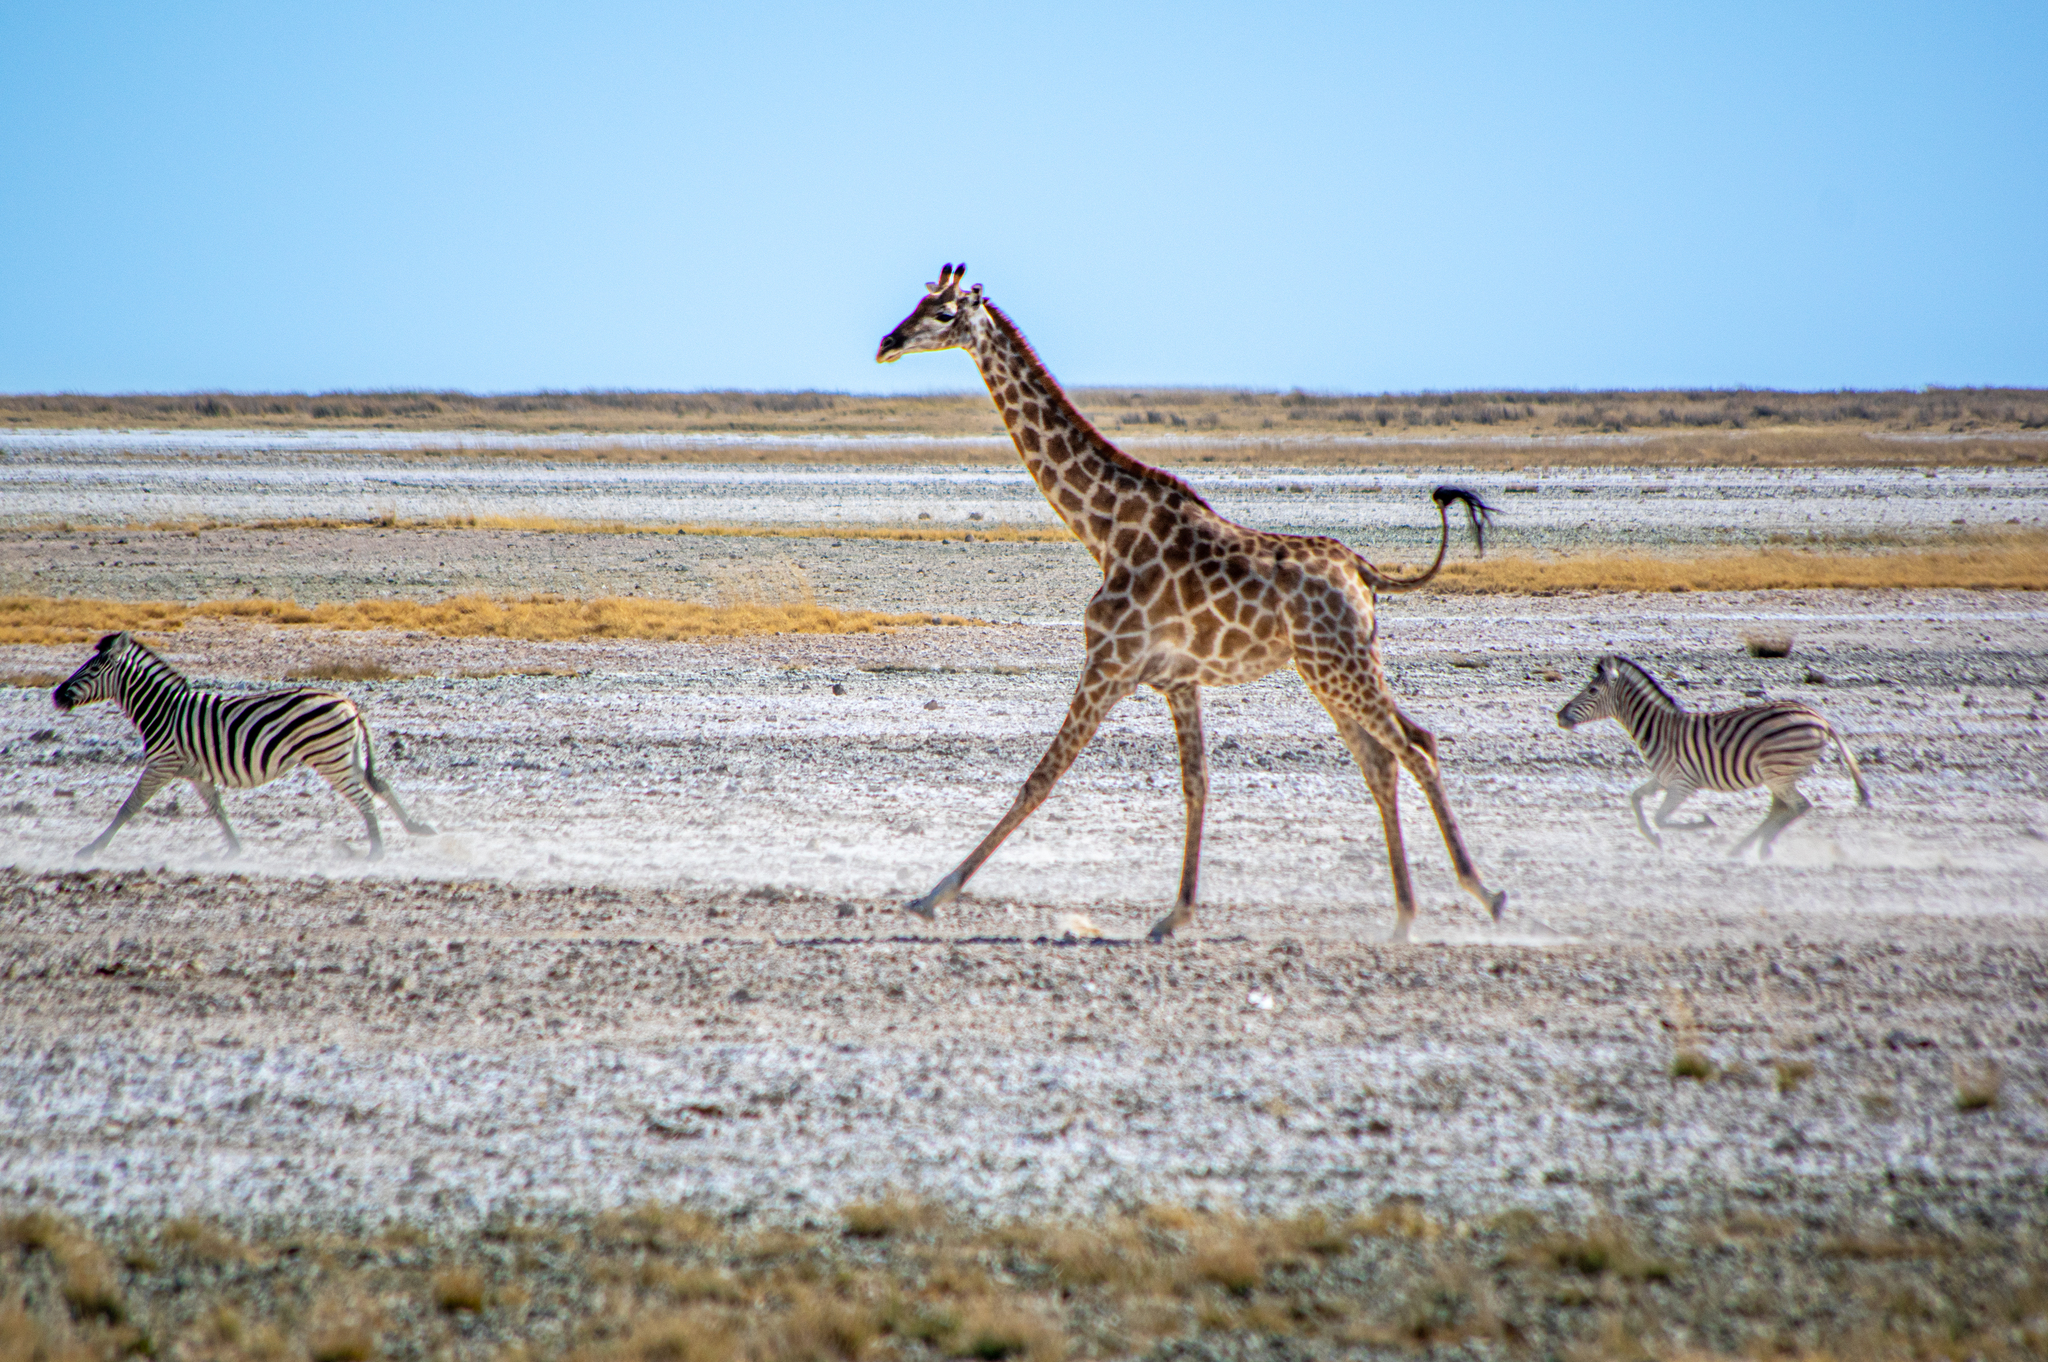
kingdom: Animalia
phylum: Chordata
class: Mammalia
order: Artiodactyla
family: Giraffidae
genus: Giraffa
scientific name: Giraffa giraffa
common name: Southern giraffe
